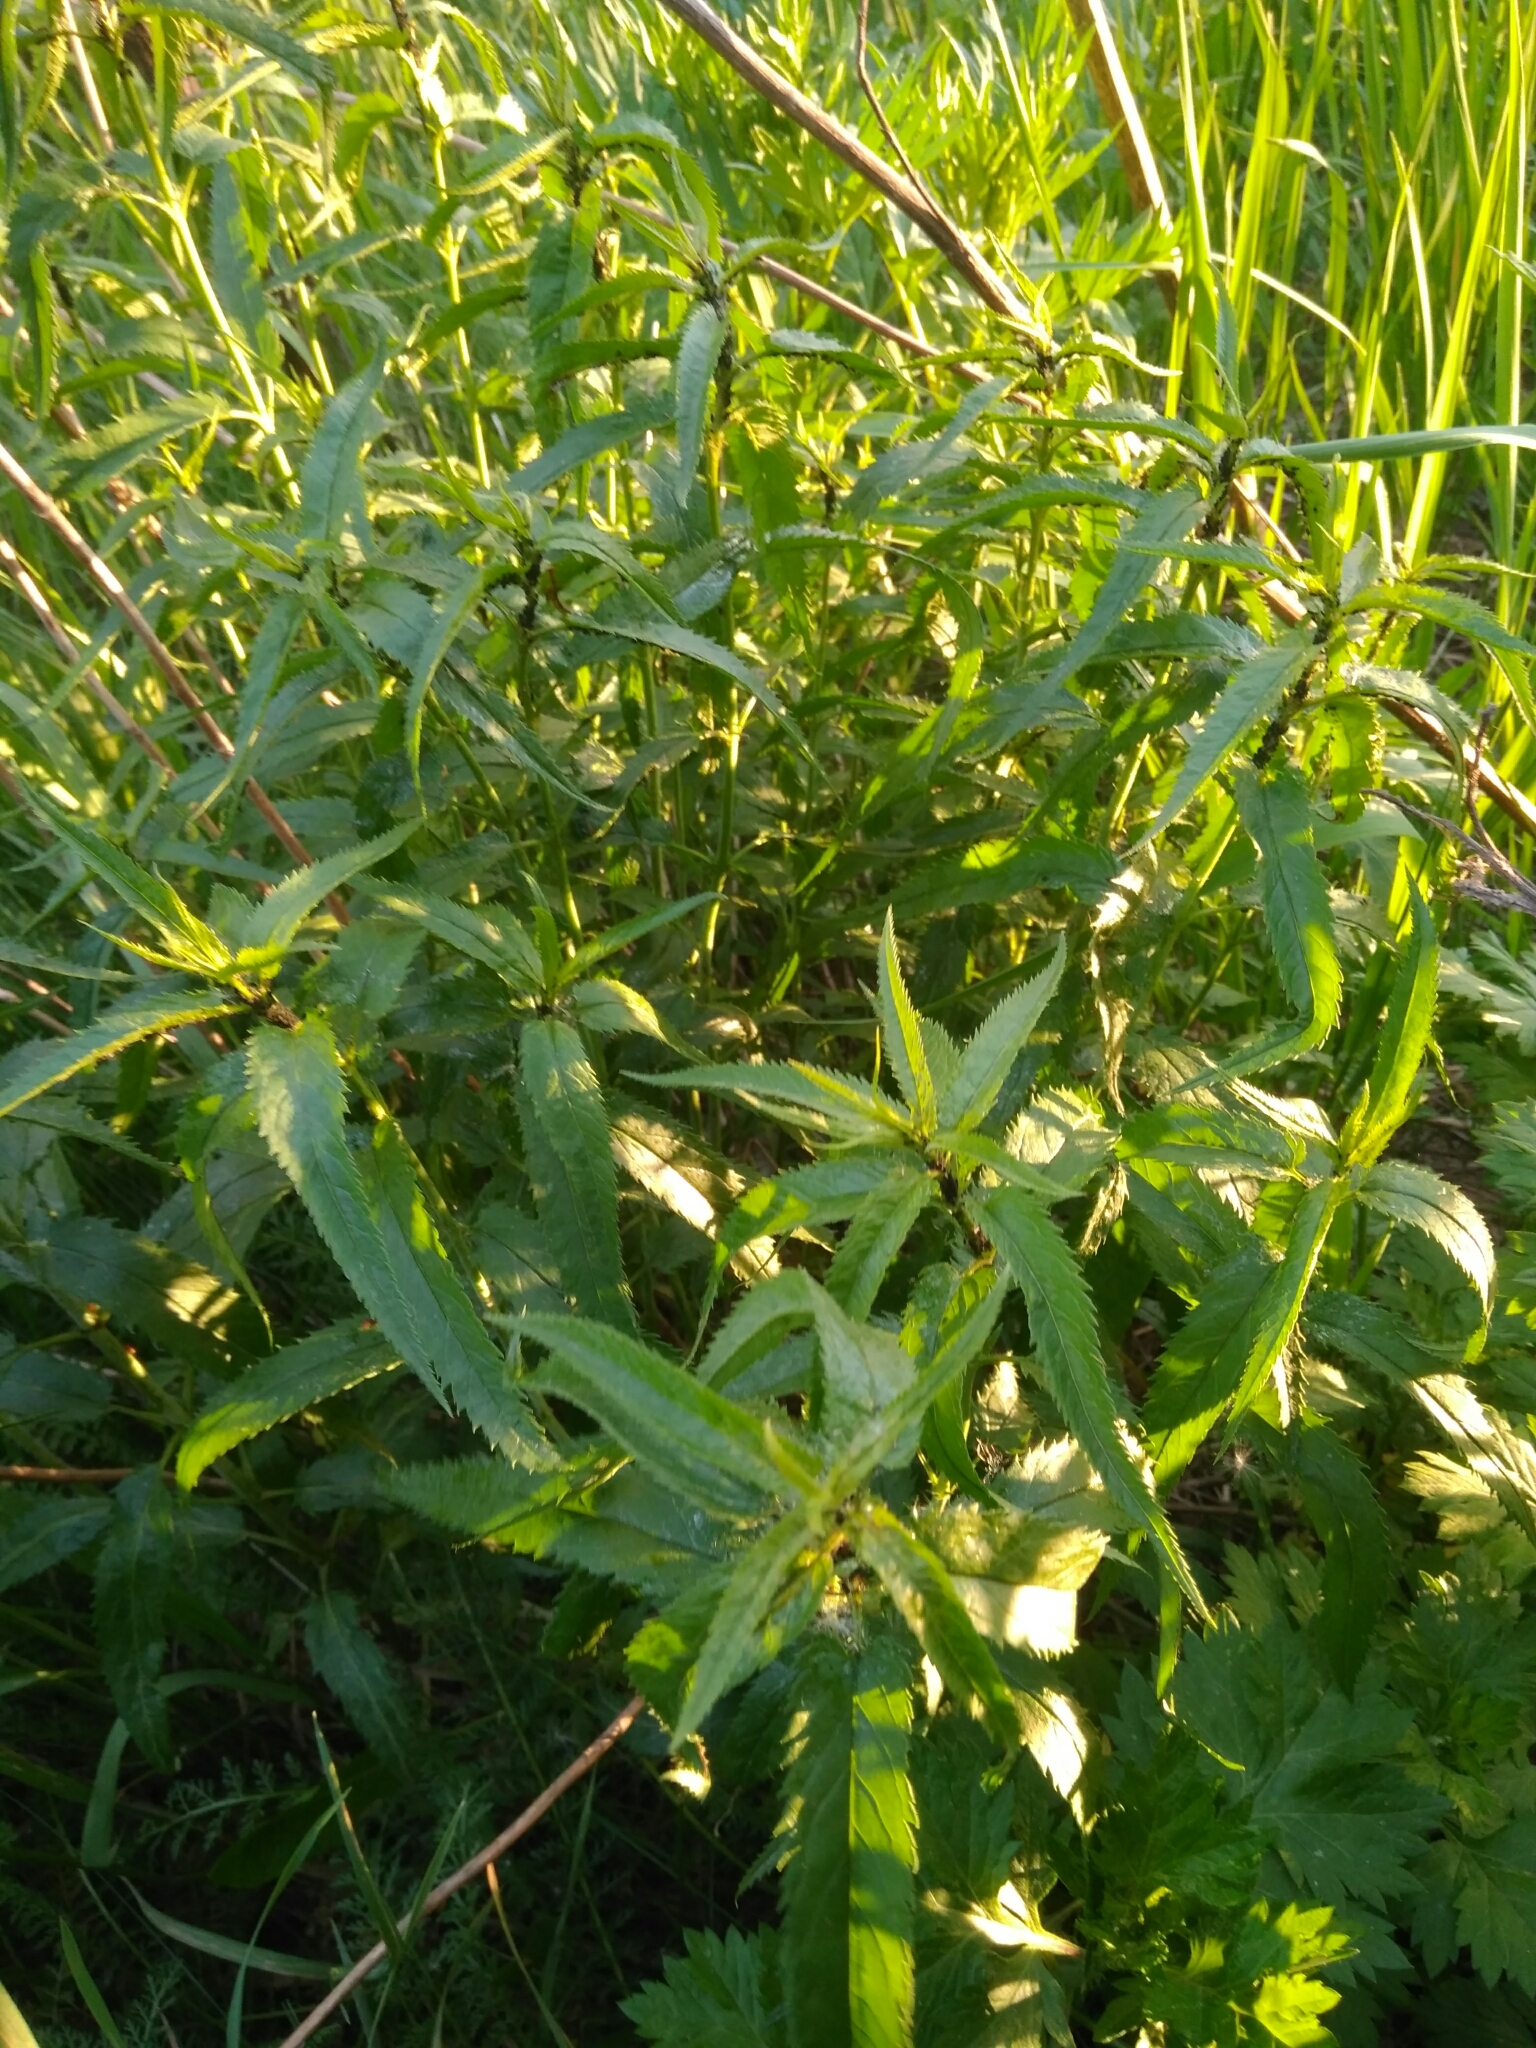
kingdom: Plantae
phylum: Tracheophyta
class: Magnoliopsida
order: Lamiales
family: Plantaginaceae
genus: Veronica
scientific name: Veronica longifolia
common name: Garden speedwell
